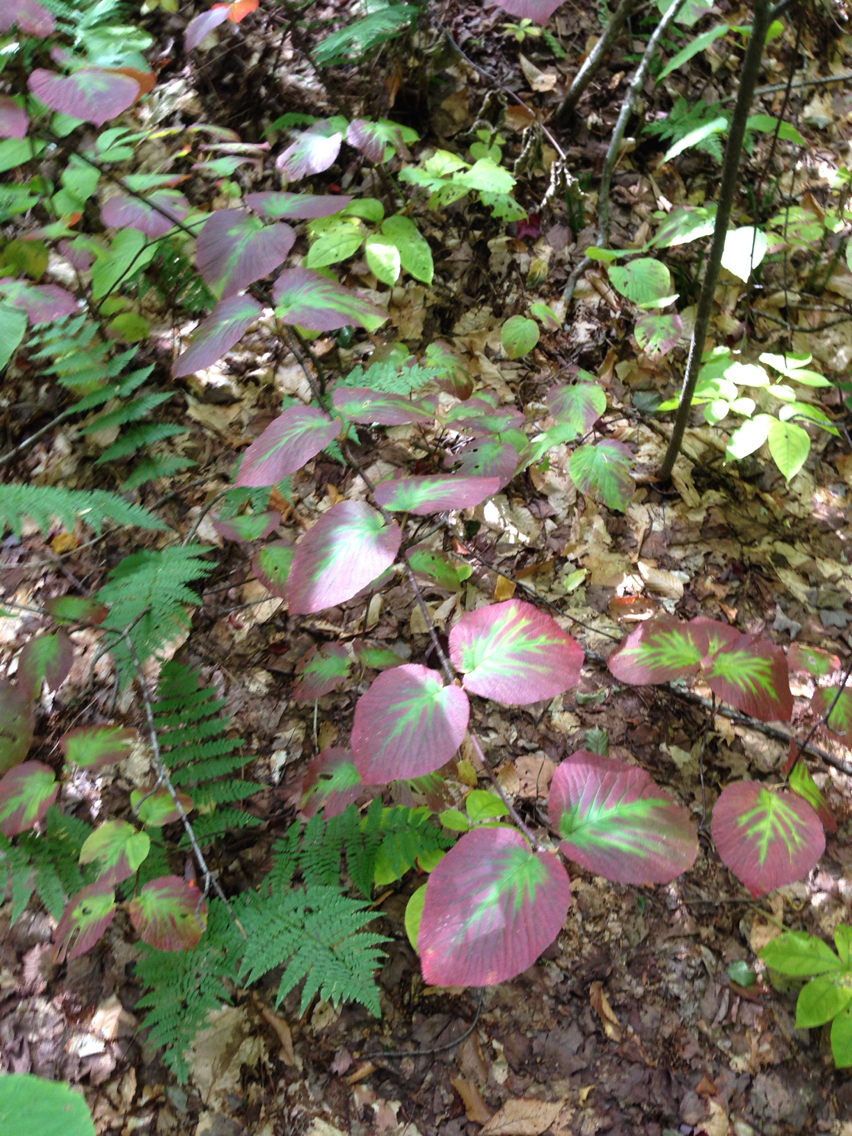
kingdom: Plantae
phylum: Tracheophyta
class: Magnoliopsida
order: Dipsacales
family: Viburnaceae
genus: Viburnum
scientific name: Viburnum lantanoides
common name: Hobblebush
